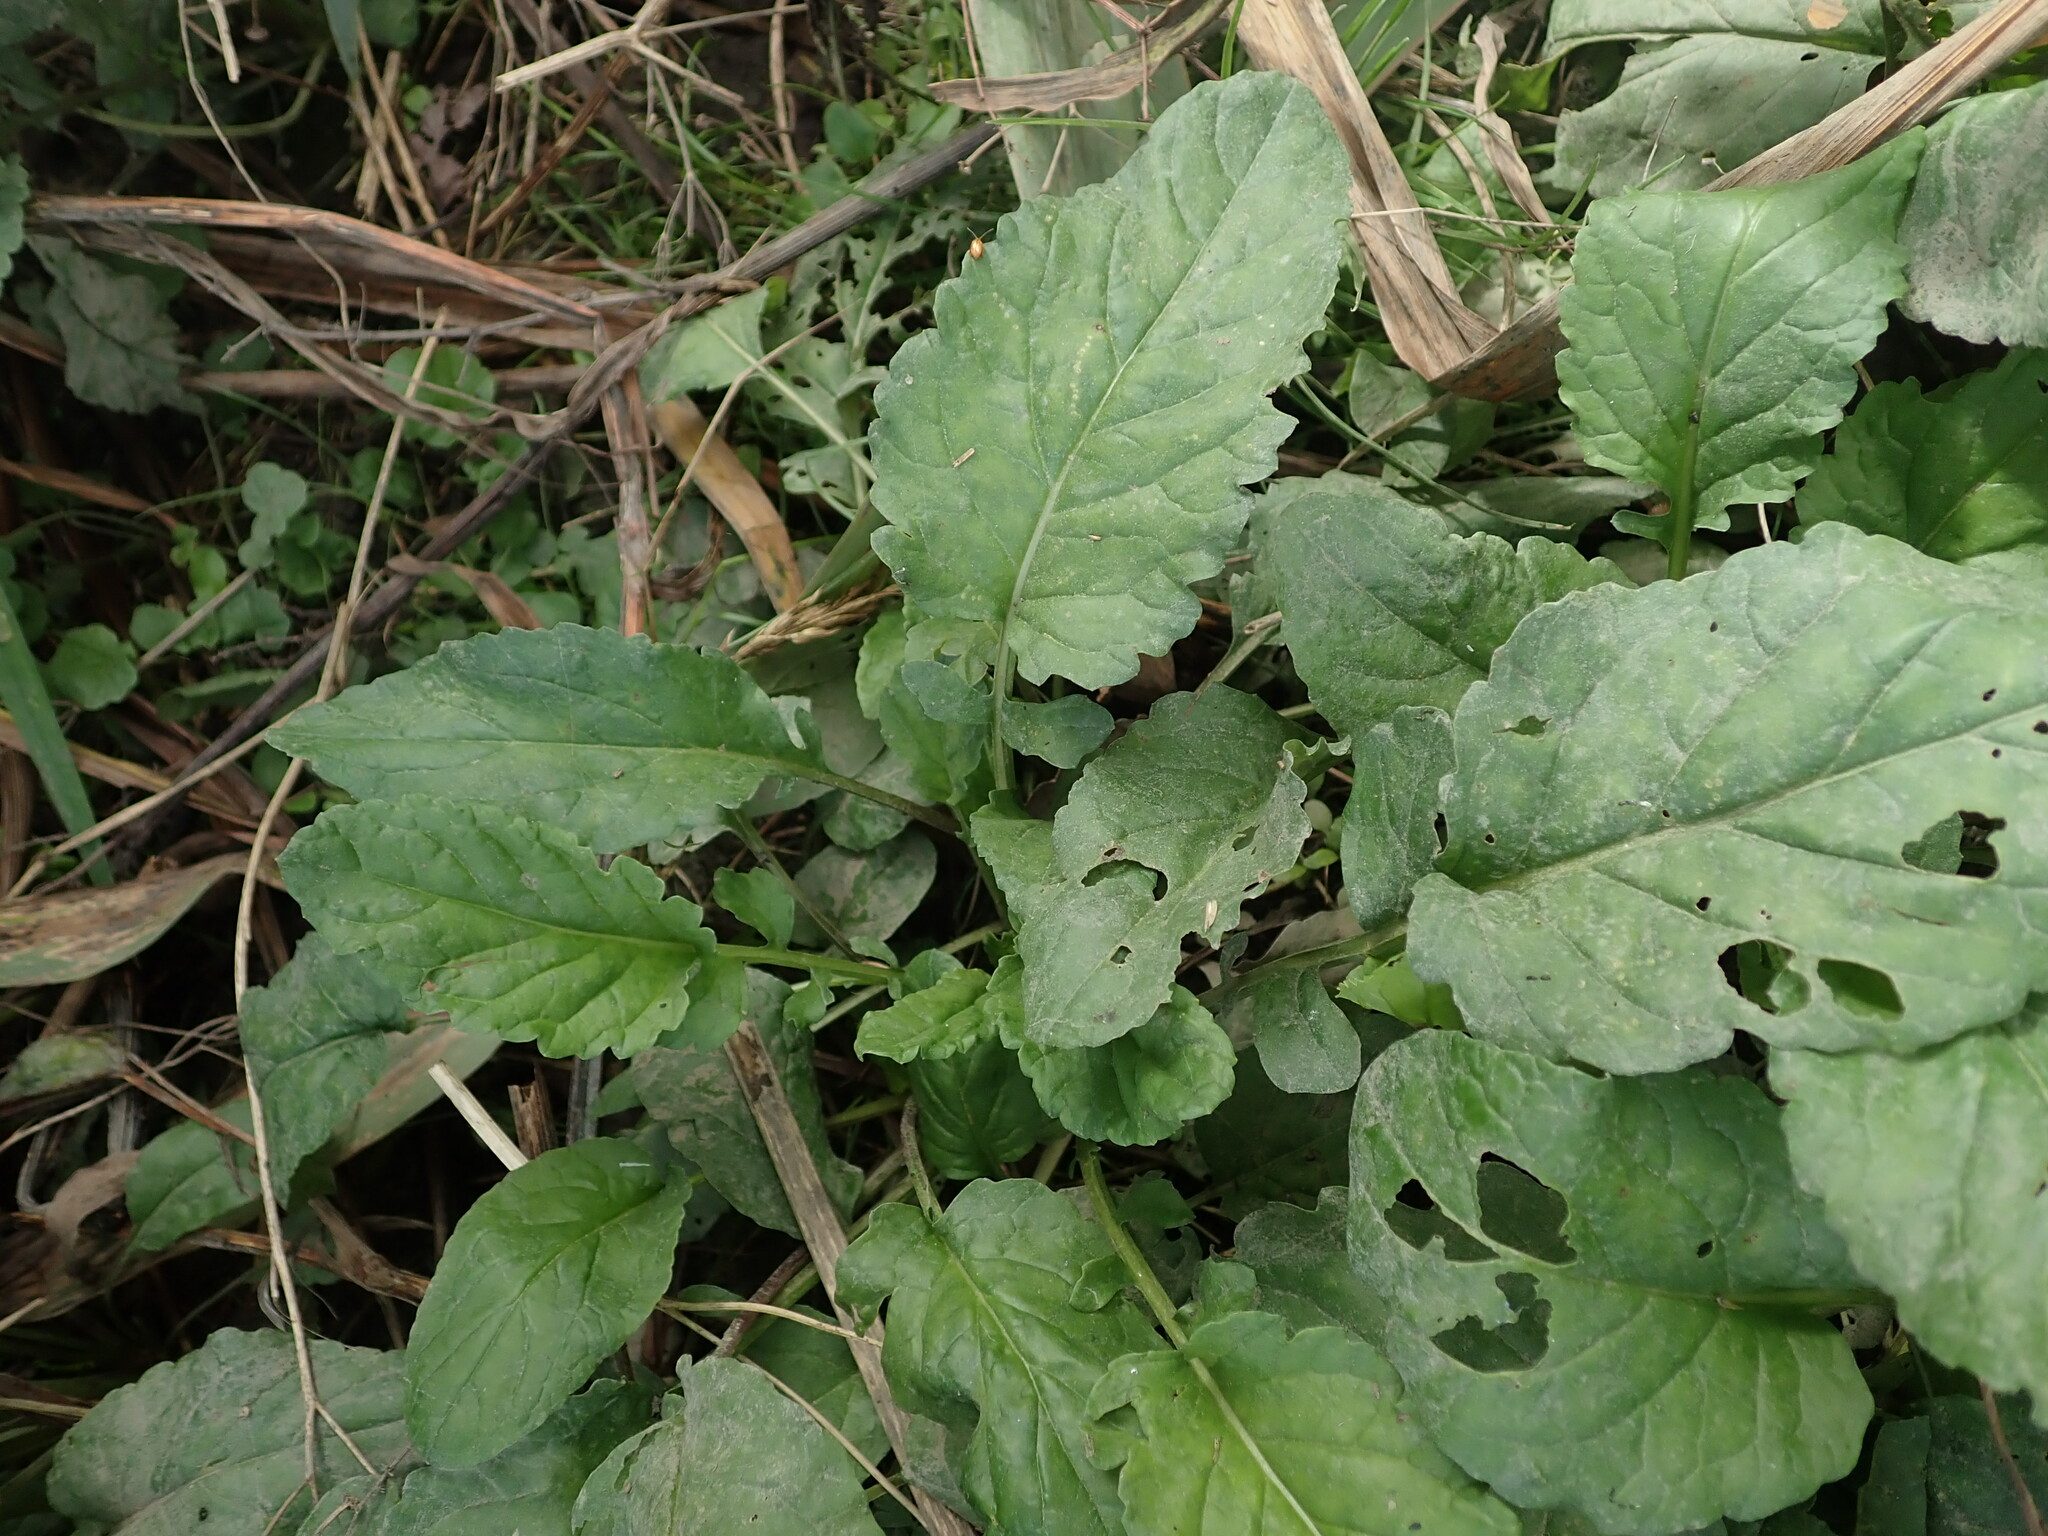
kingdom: Plantae
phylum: Tracheophyta
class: Magnoliopsida
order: Asterales
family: Asteraceae
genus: Jacobaea
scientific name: Jacobaea aquatica
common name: Water ragwort
